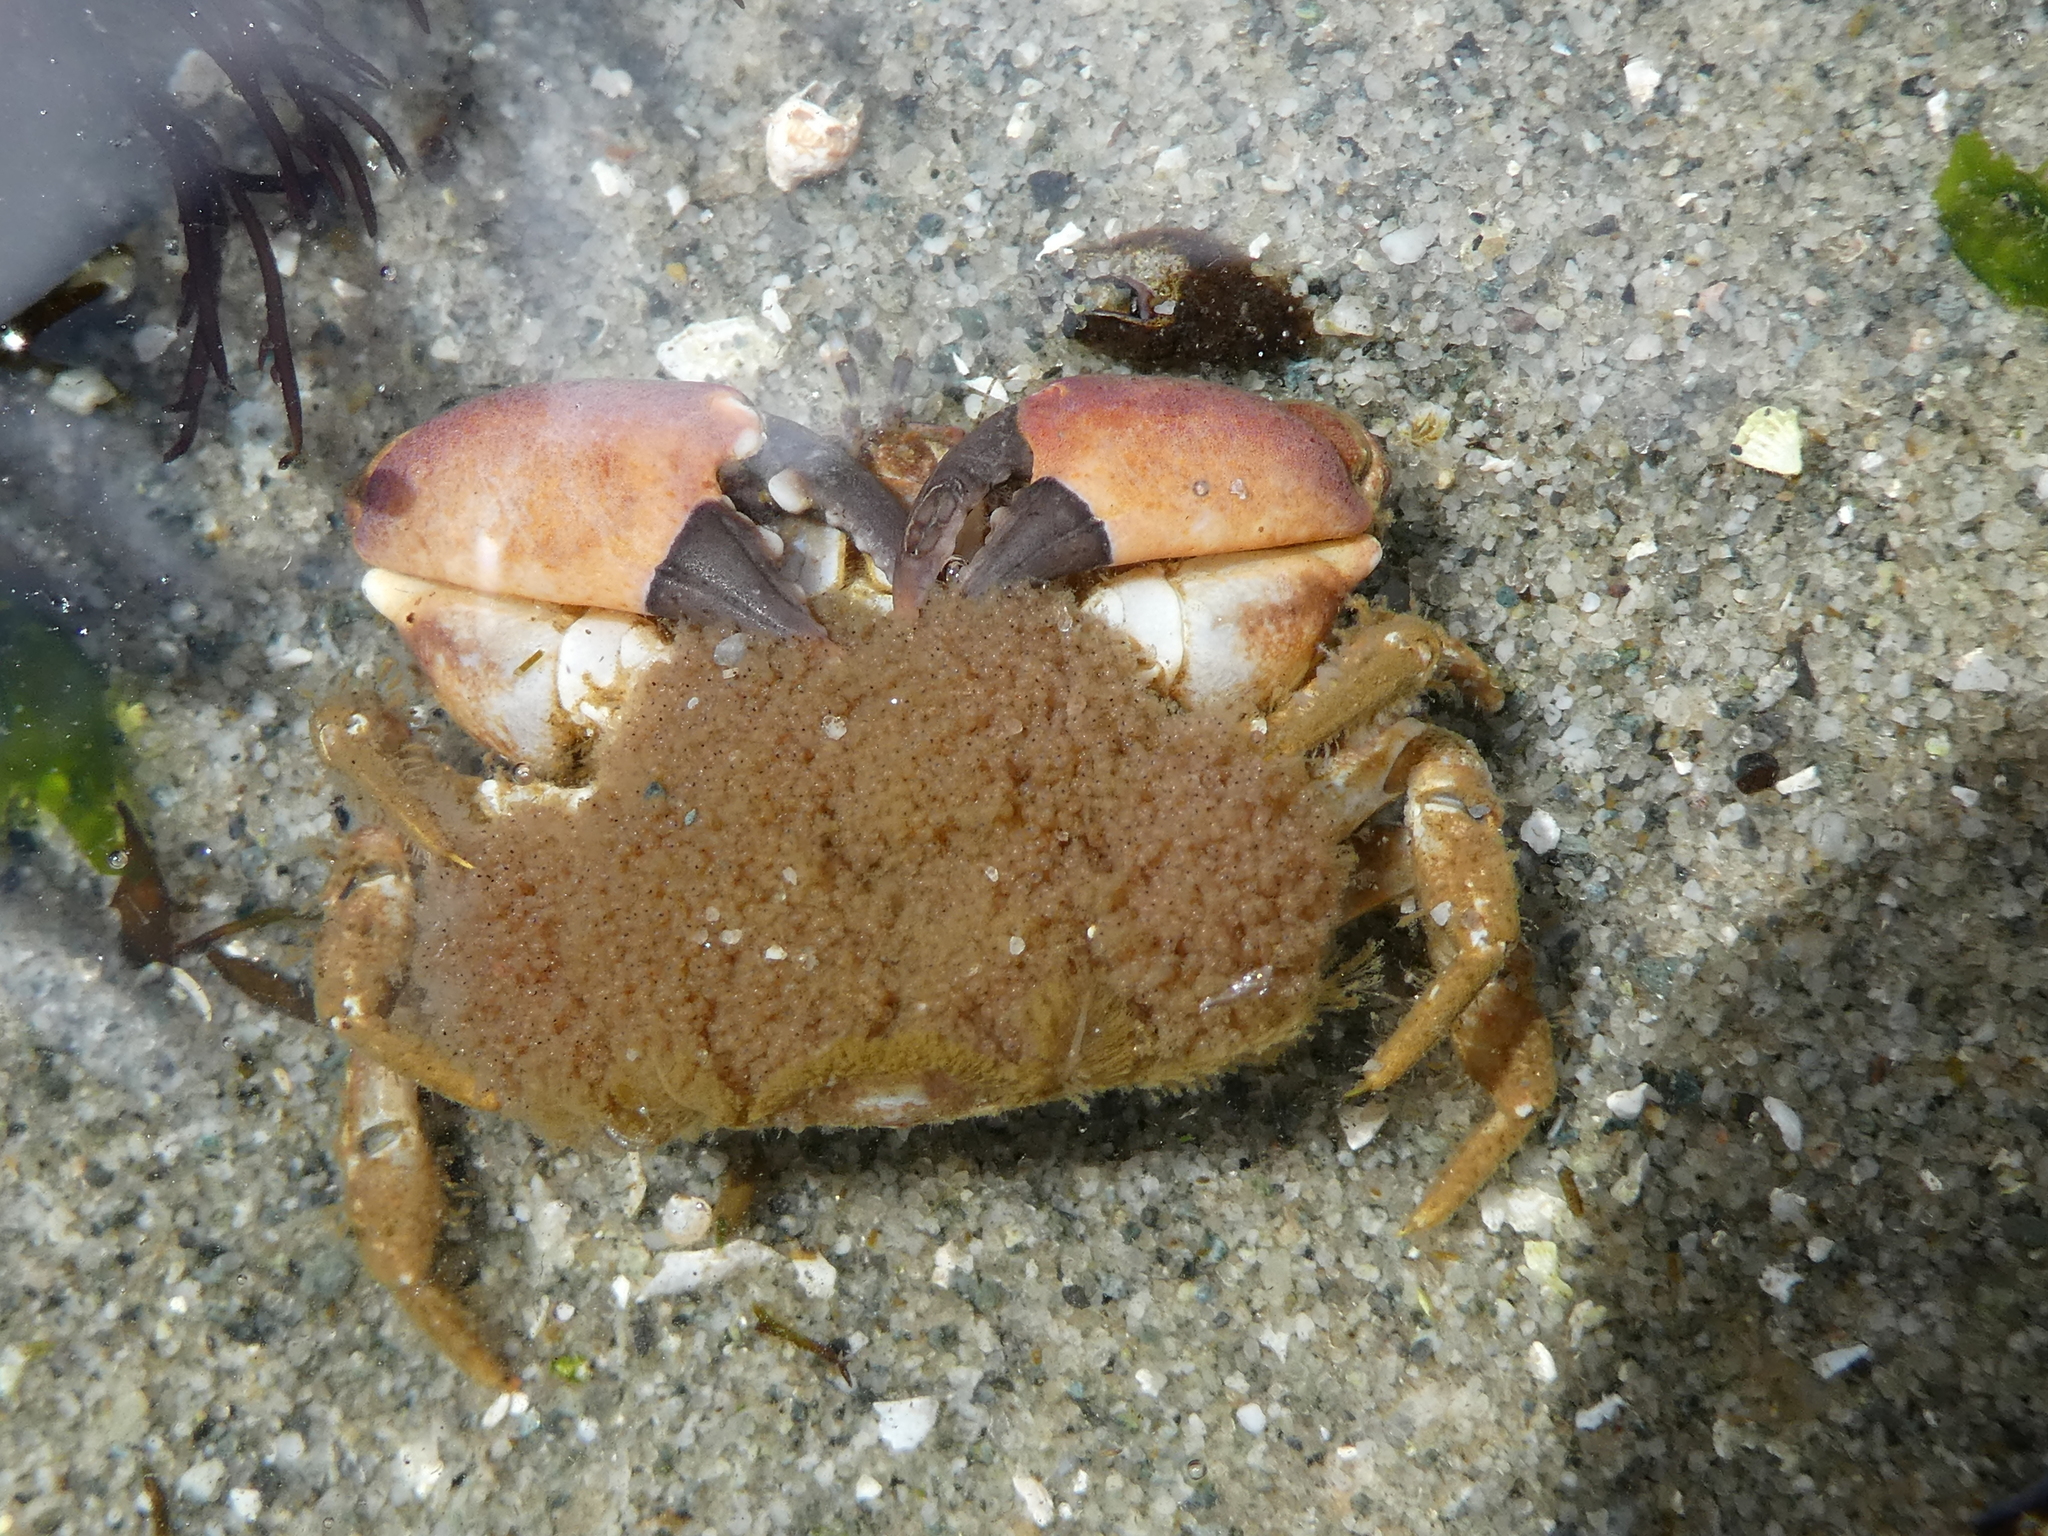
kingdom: Animalia
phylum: Arthropoda
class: Malacostraca
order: Decapoda
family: Panopeidae
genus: Lophopanopeus
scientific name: Lophopanopeus bellus
